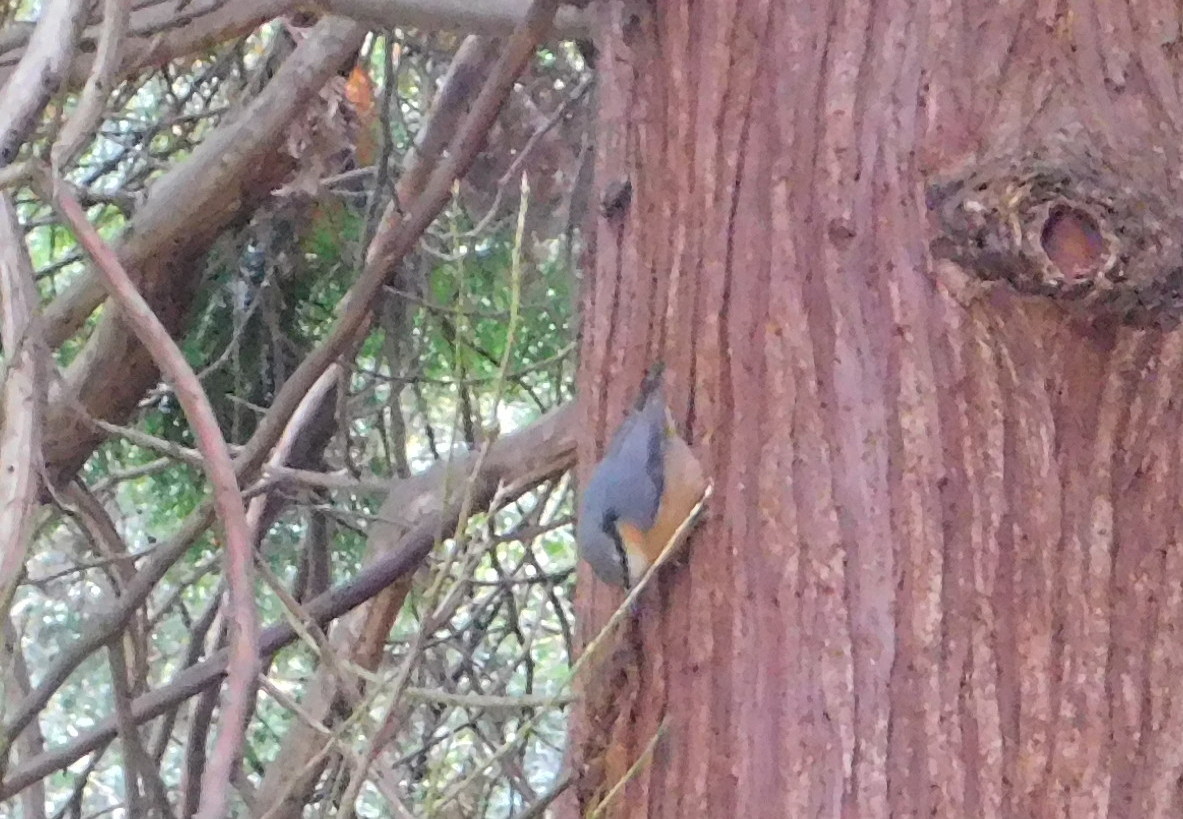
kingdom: Animalia
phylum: Chordata
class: Aves
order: Passeriformes
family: Sittidae
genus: Sitta
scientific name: Sitta europaea
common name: Eurasian nuthatch
